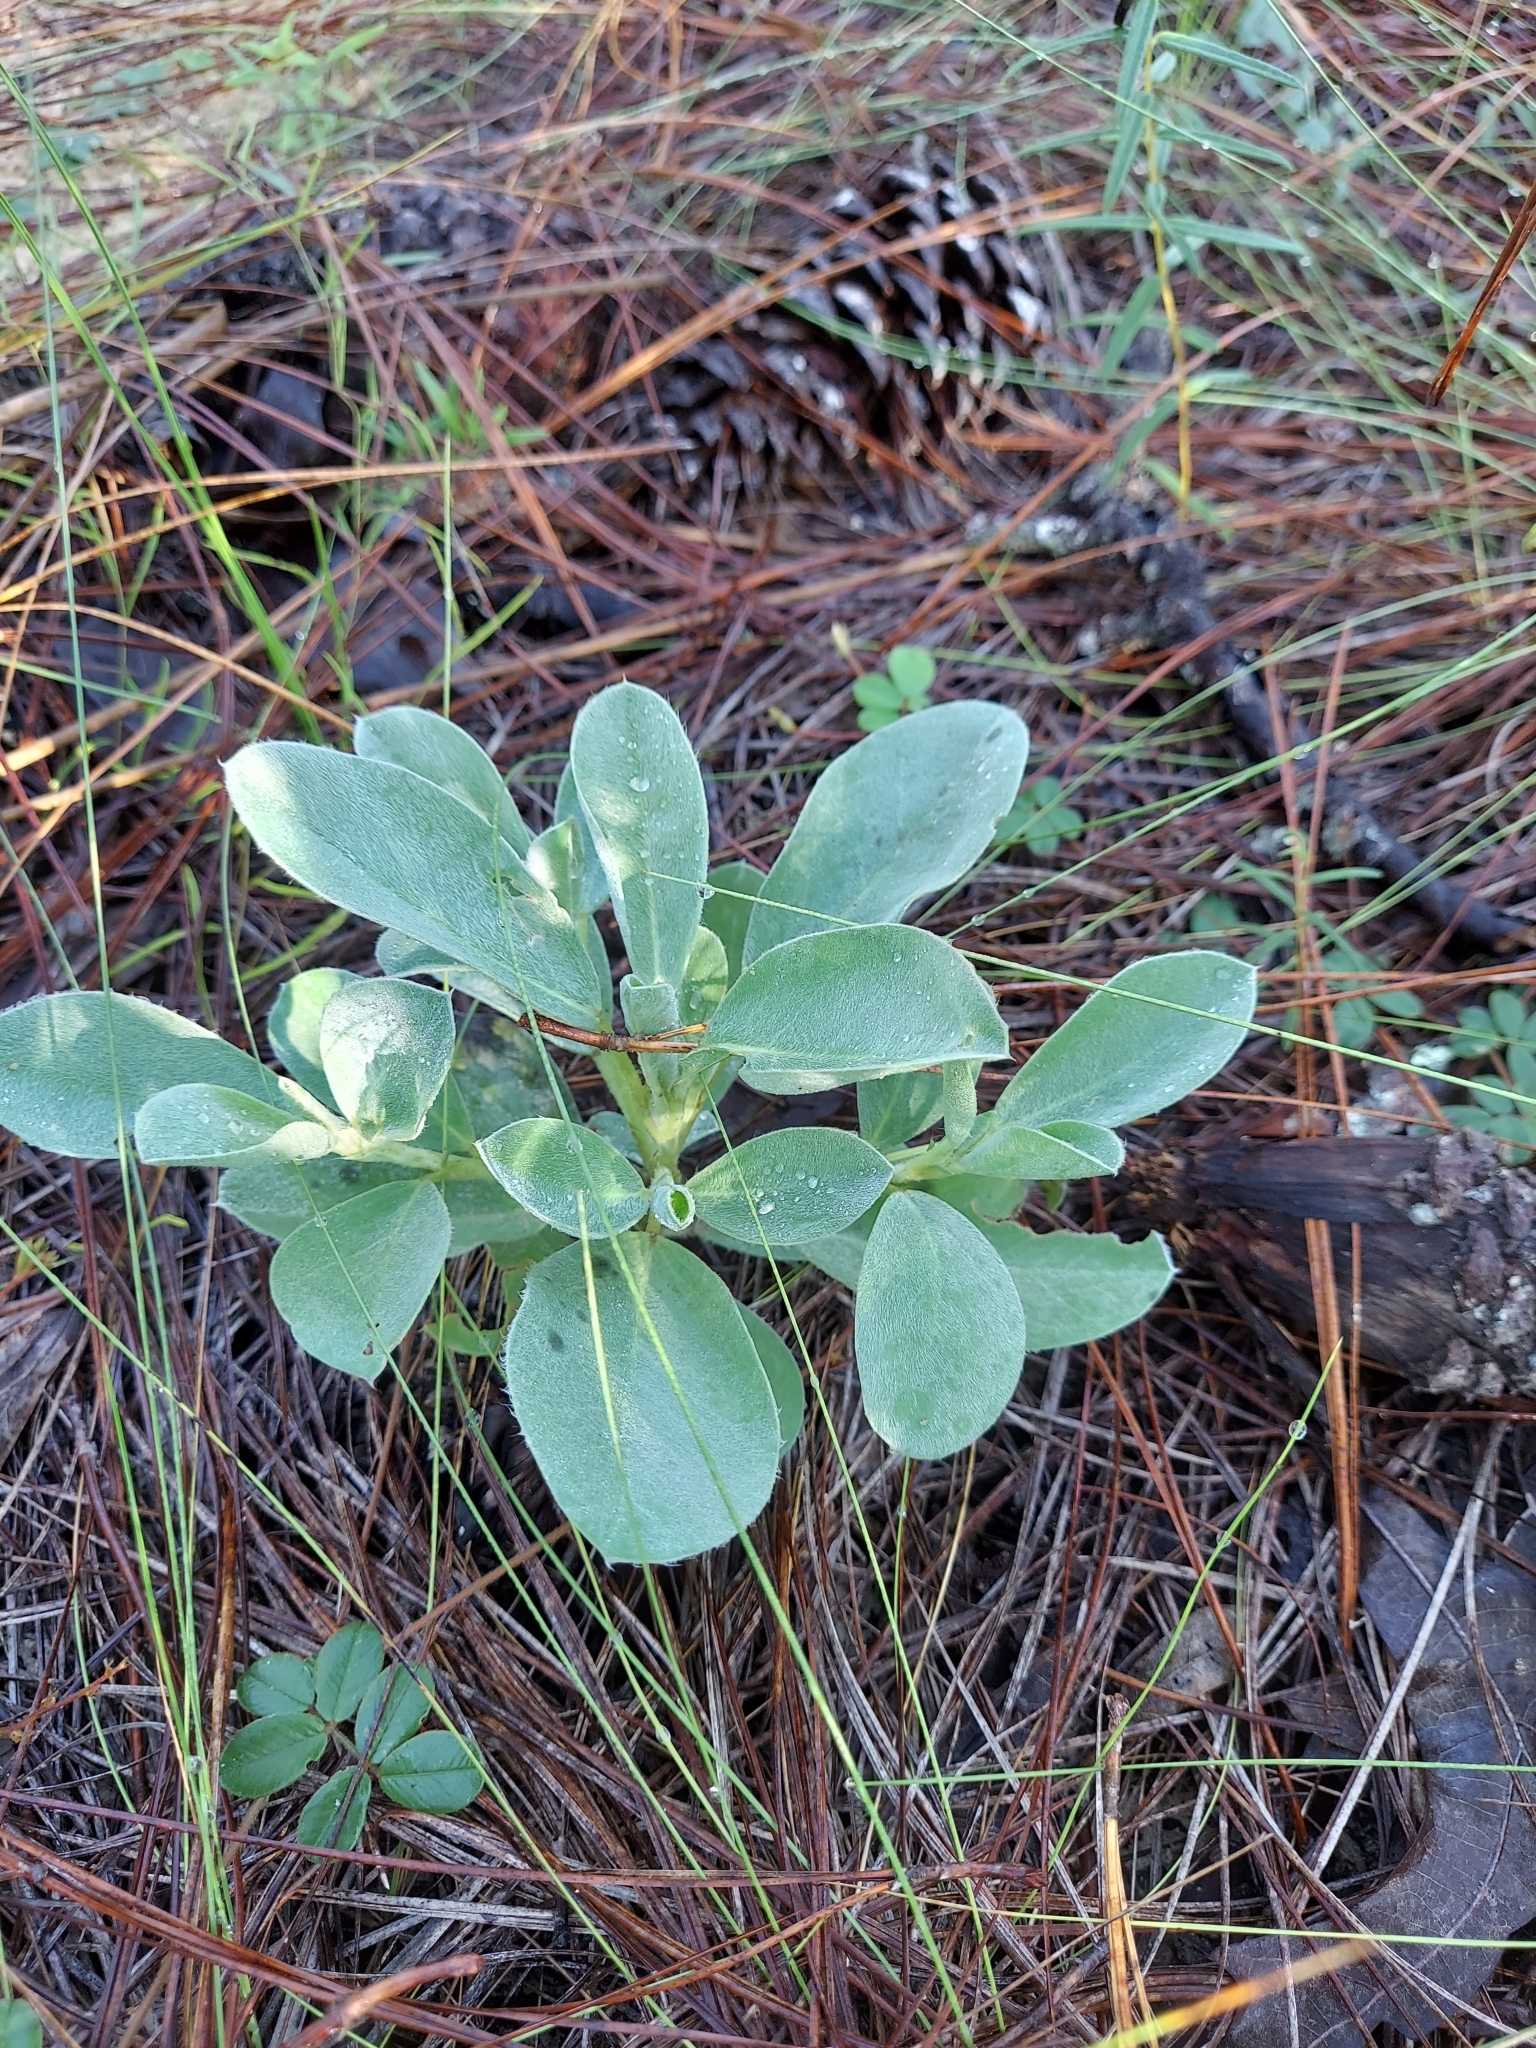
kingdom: Plantae
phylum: Tracheophyta
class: Magnoliopsida
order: Fabales
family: Fabaceae
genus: Lupinus
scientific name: Lupinus
